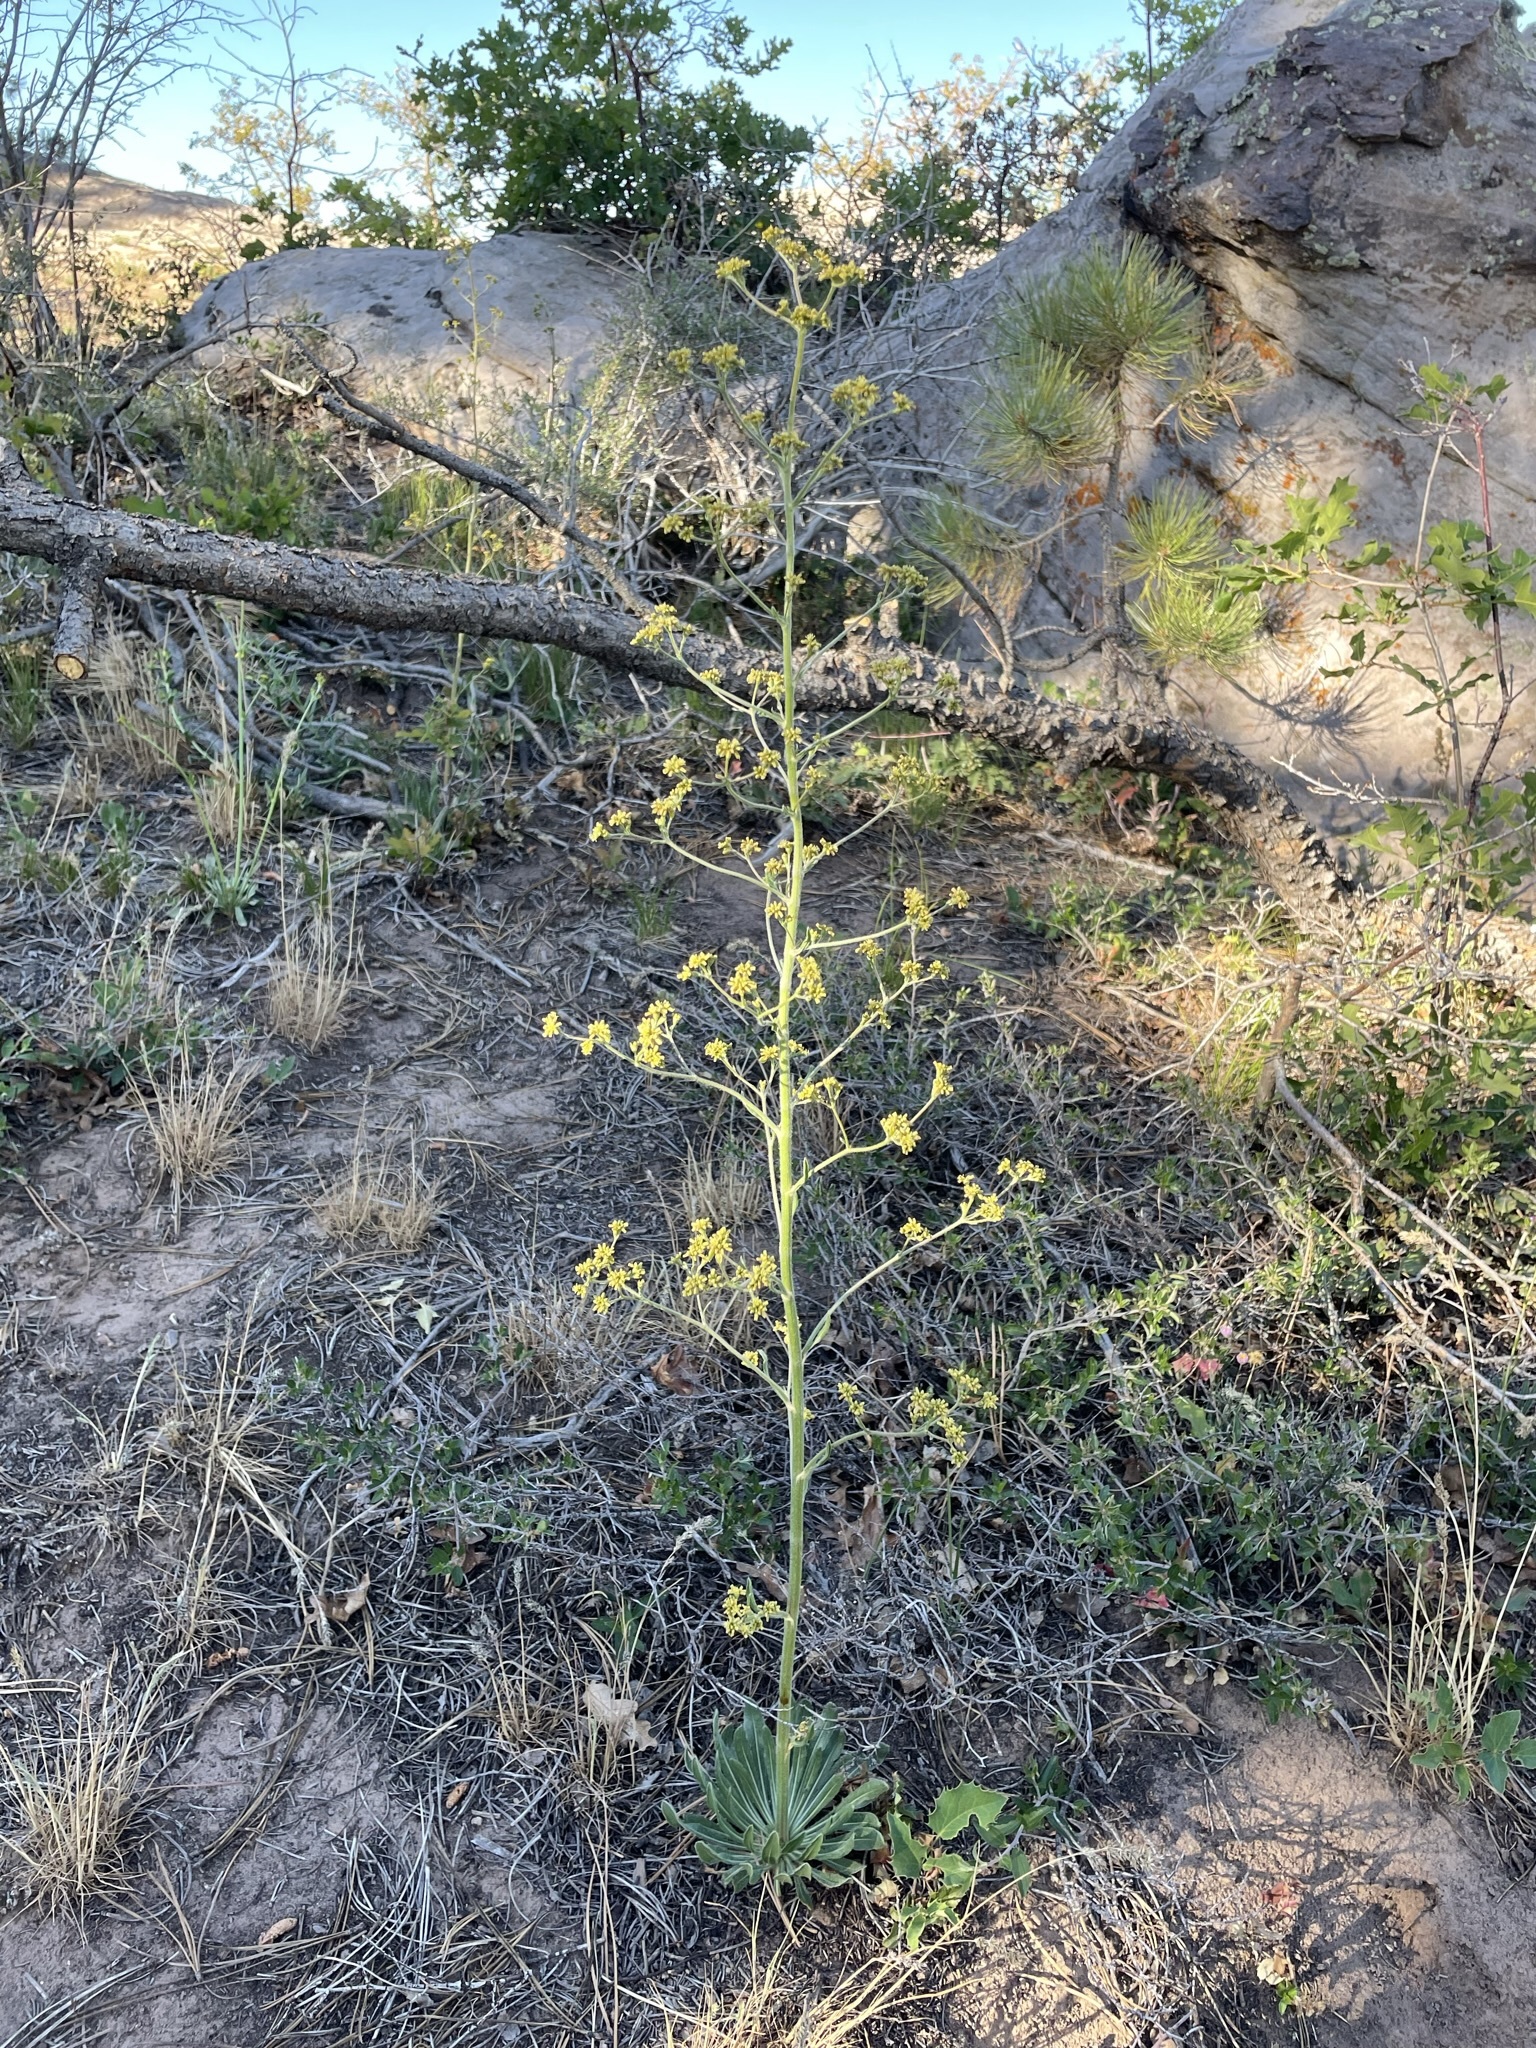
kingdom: Plantae
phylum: Tracheophyta
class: Magnoliopsida
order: Caryophyllales
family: Polygonaceae
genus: Eriogonum
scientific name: Eriogonum alatum
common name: Winged eriogonum
